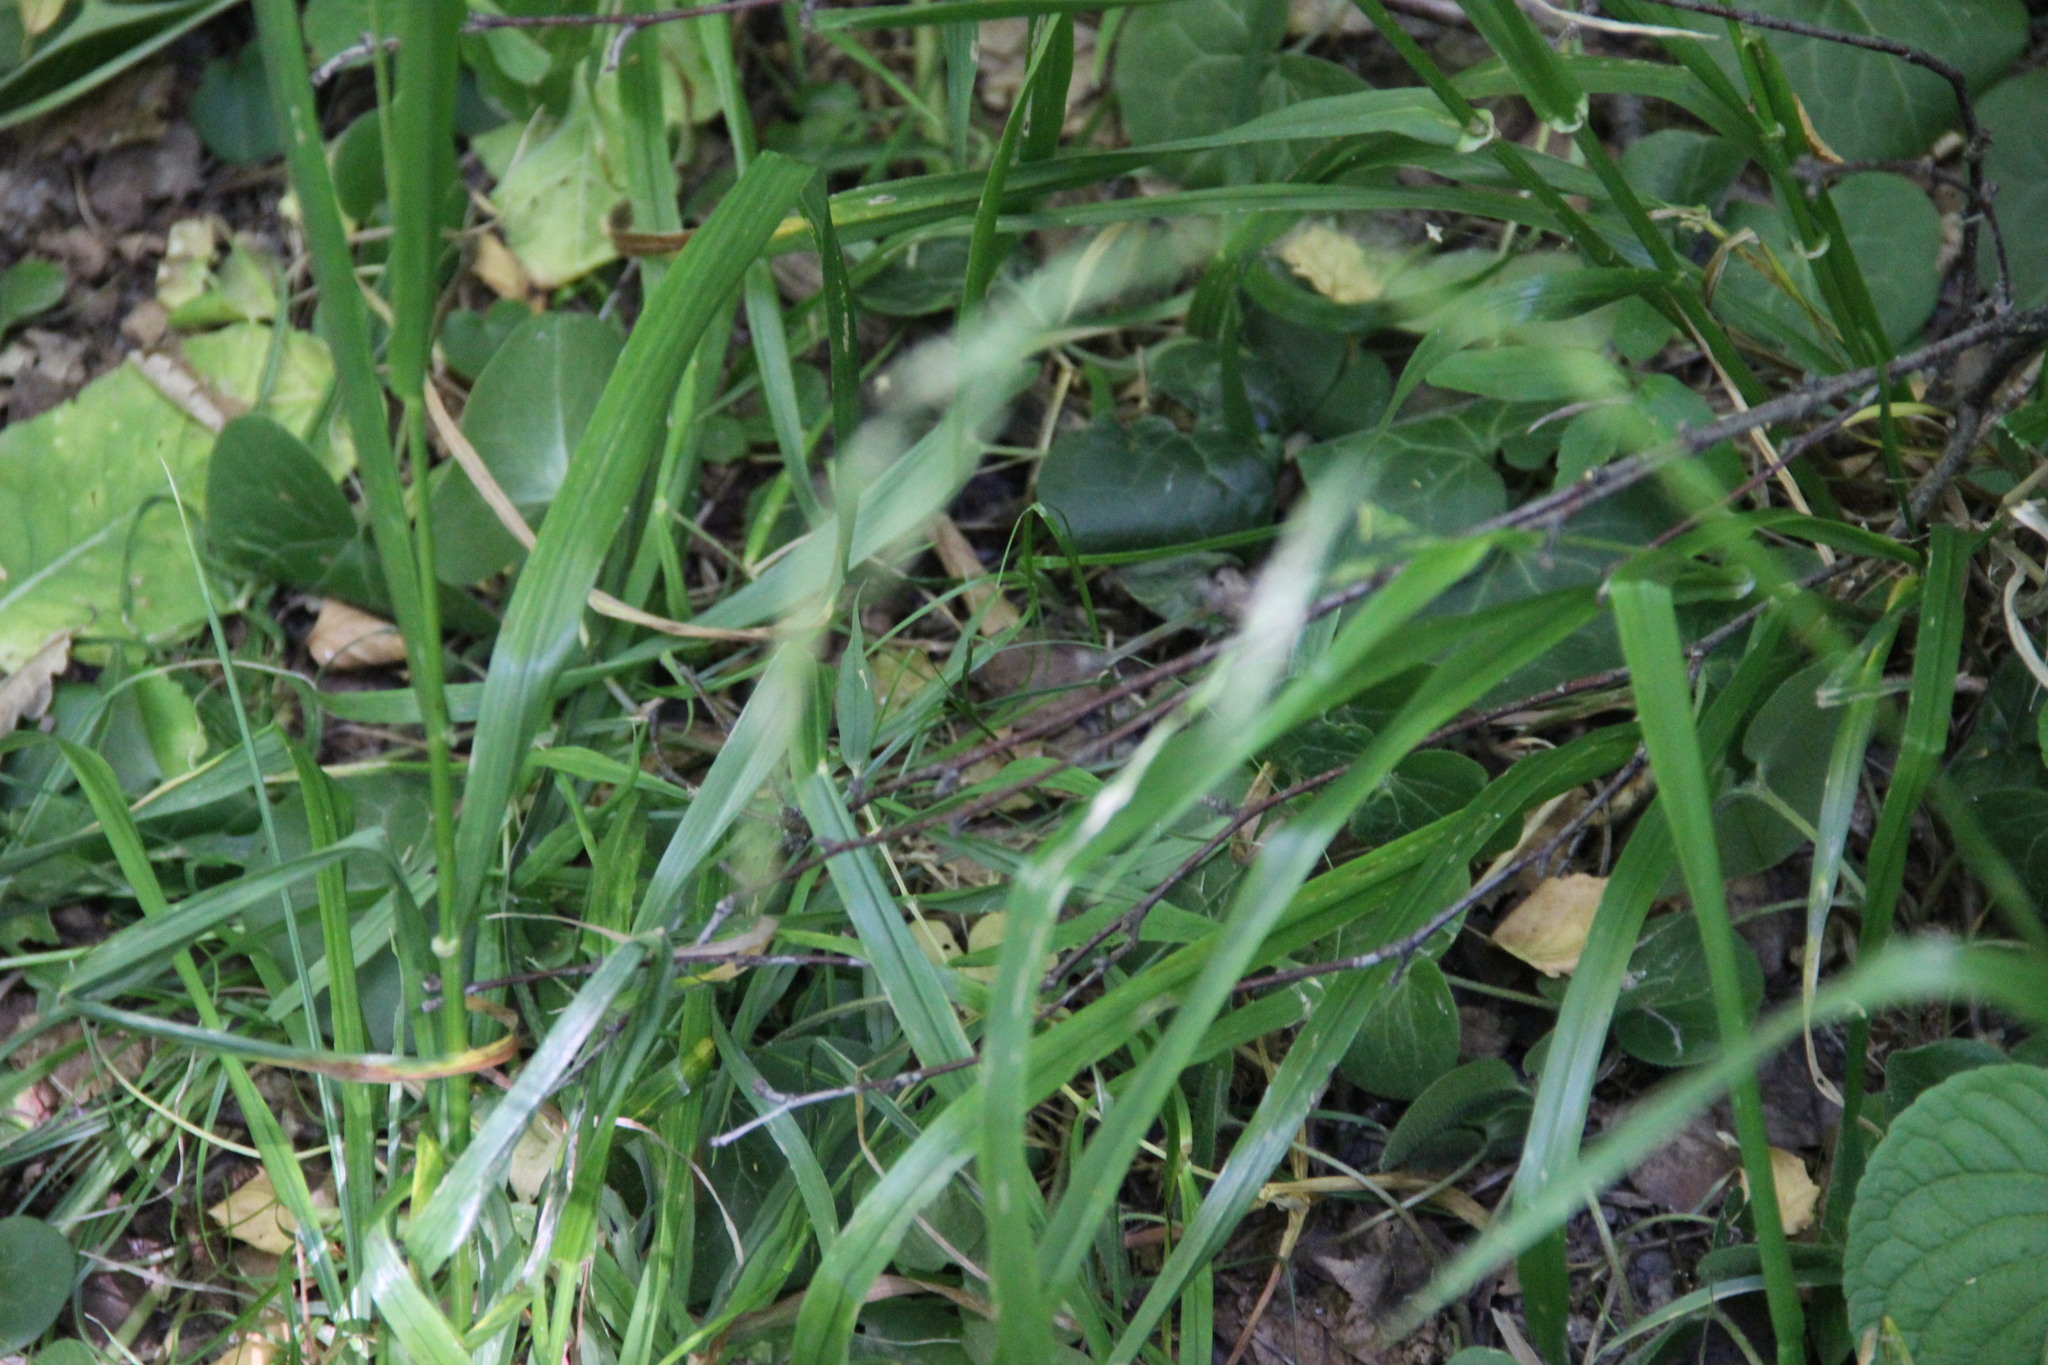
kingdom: Plantae
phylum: Tracheophyta
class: Liliopsida
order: Poales
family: Poaceae
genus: Lolium
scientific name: Lolium giganteum
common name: Giant fescue
